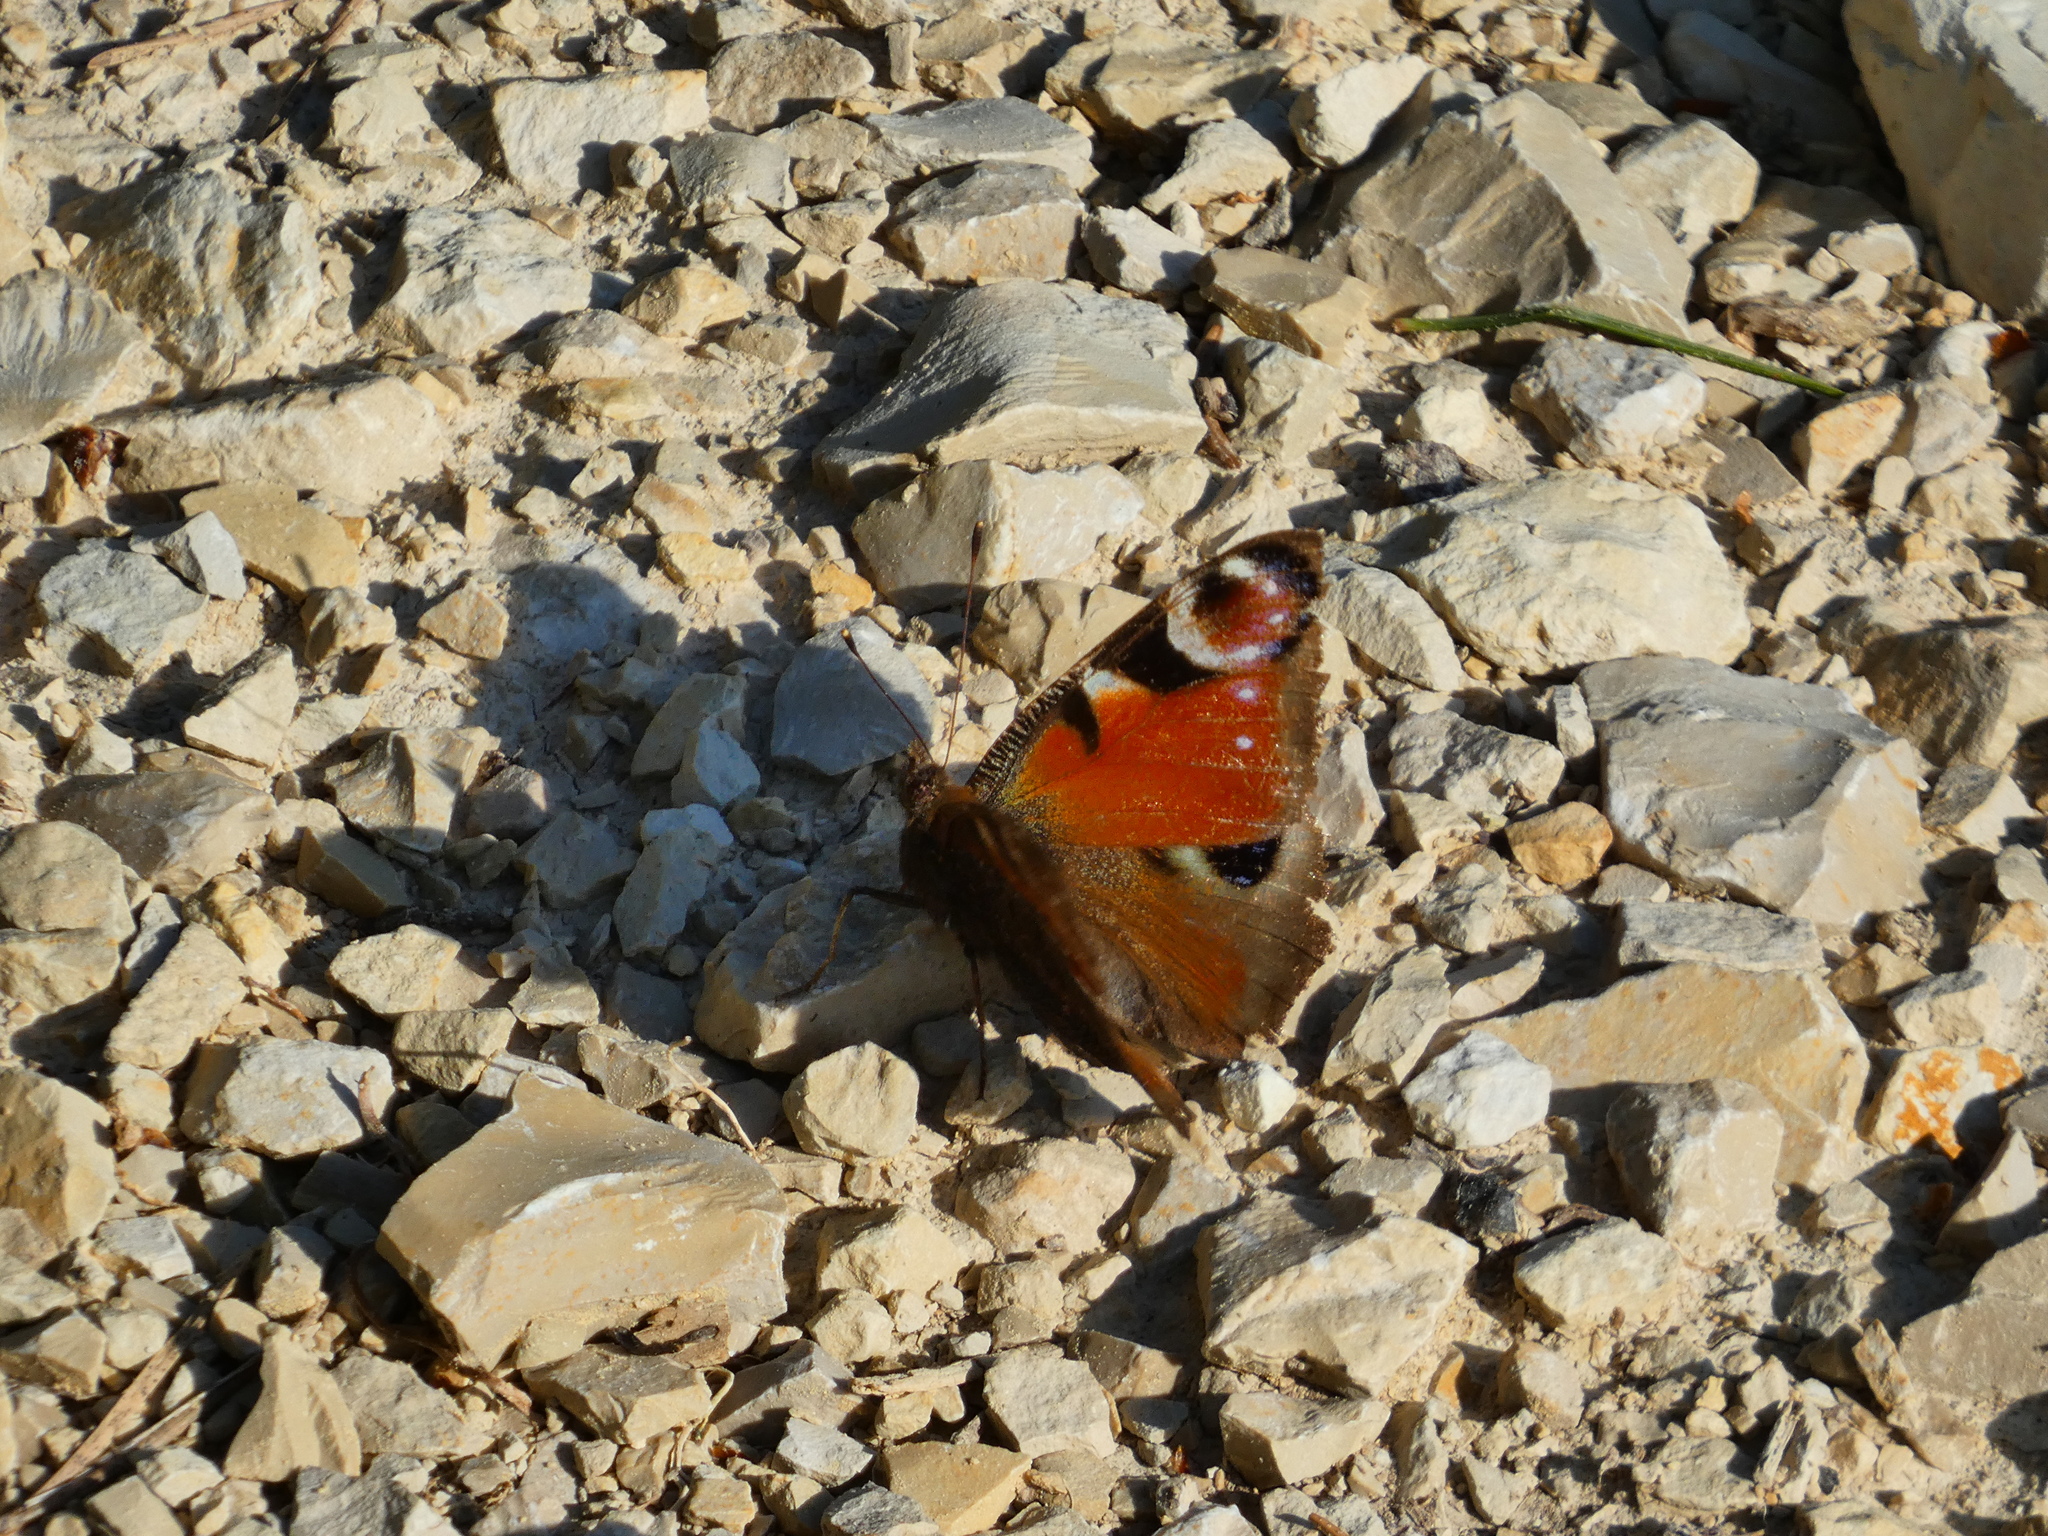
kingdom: Animalia
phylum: Arthropoda
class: Insecta
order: Lepidoptera
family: Nymphalidae
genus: Aglais
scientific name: Aglais io
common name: Peacock
